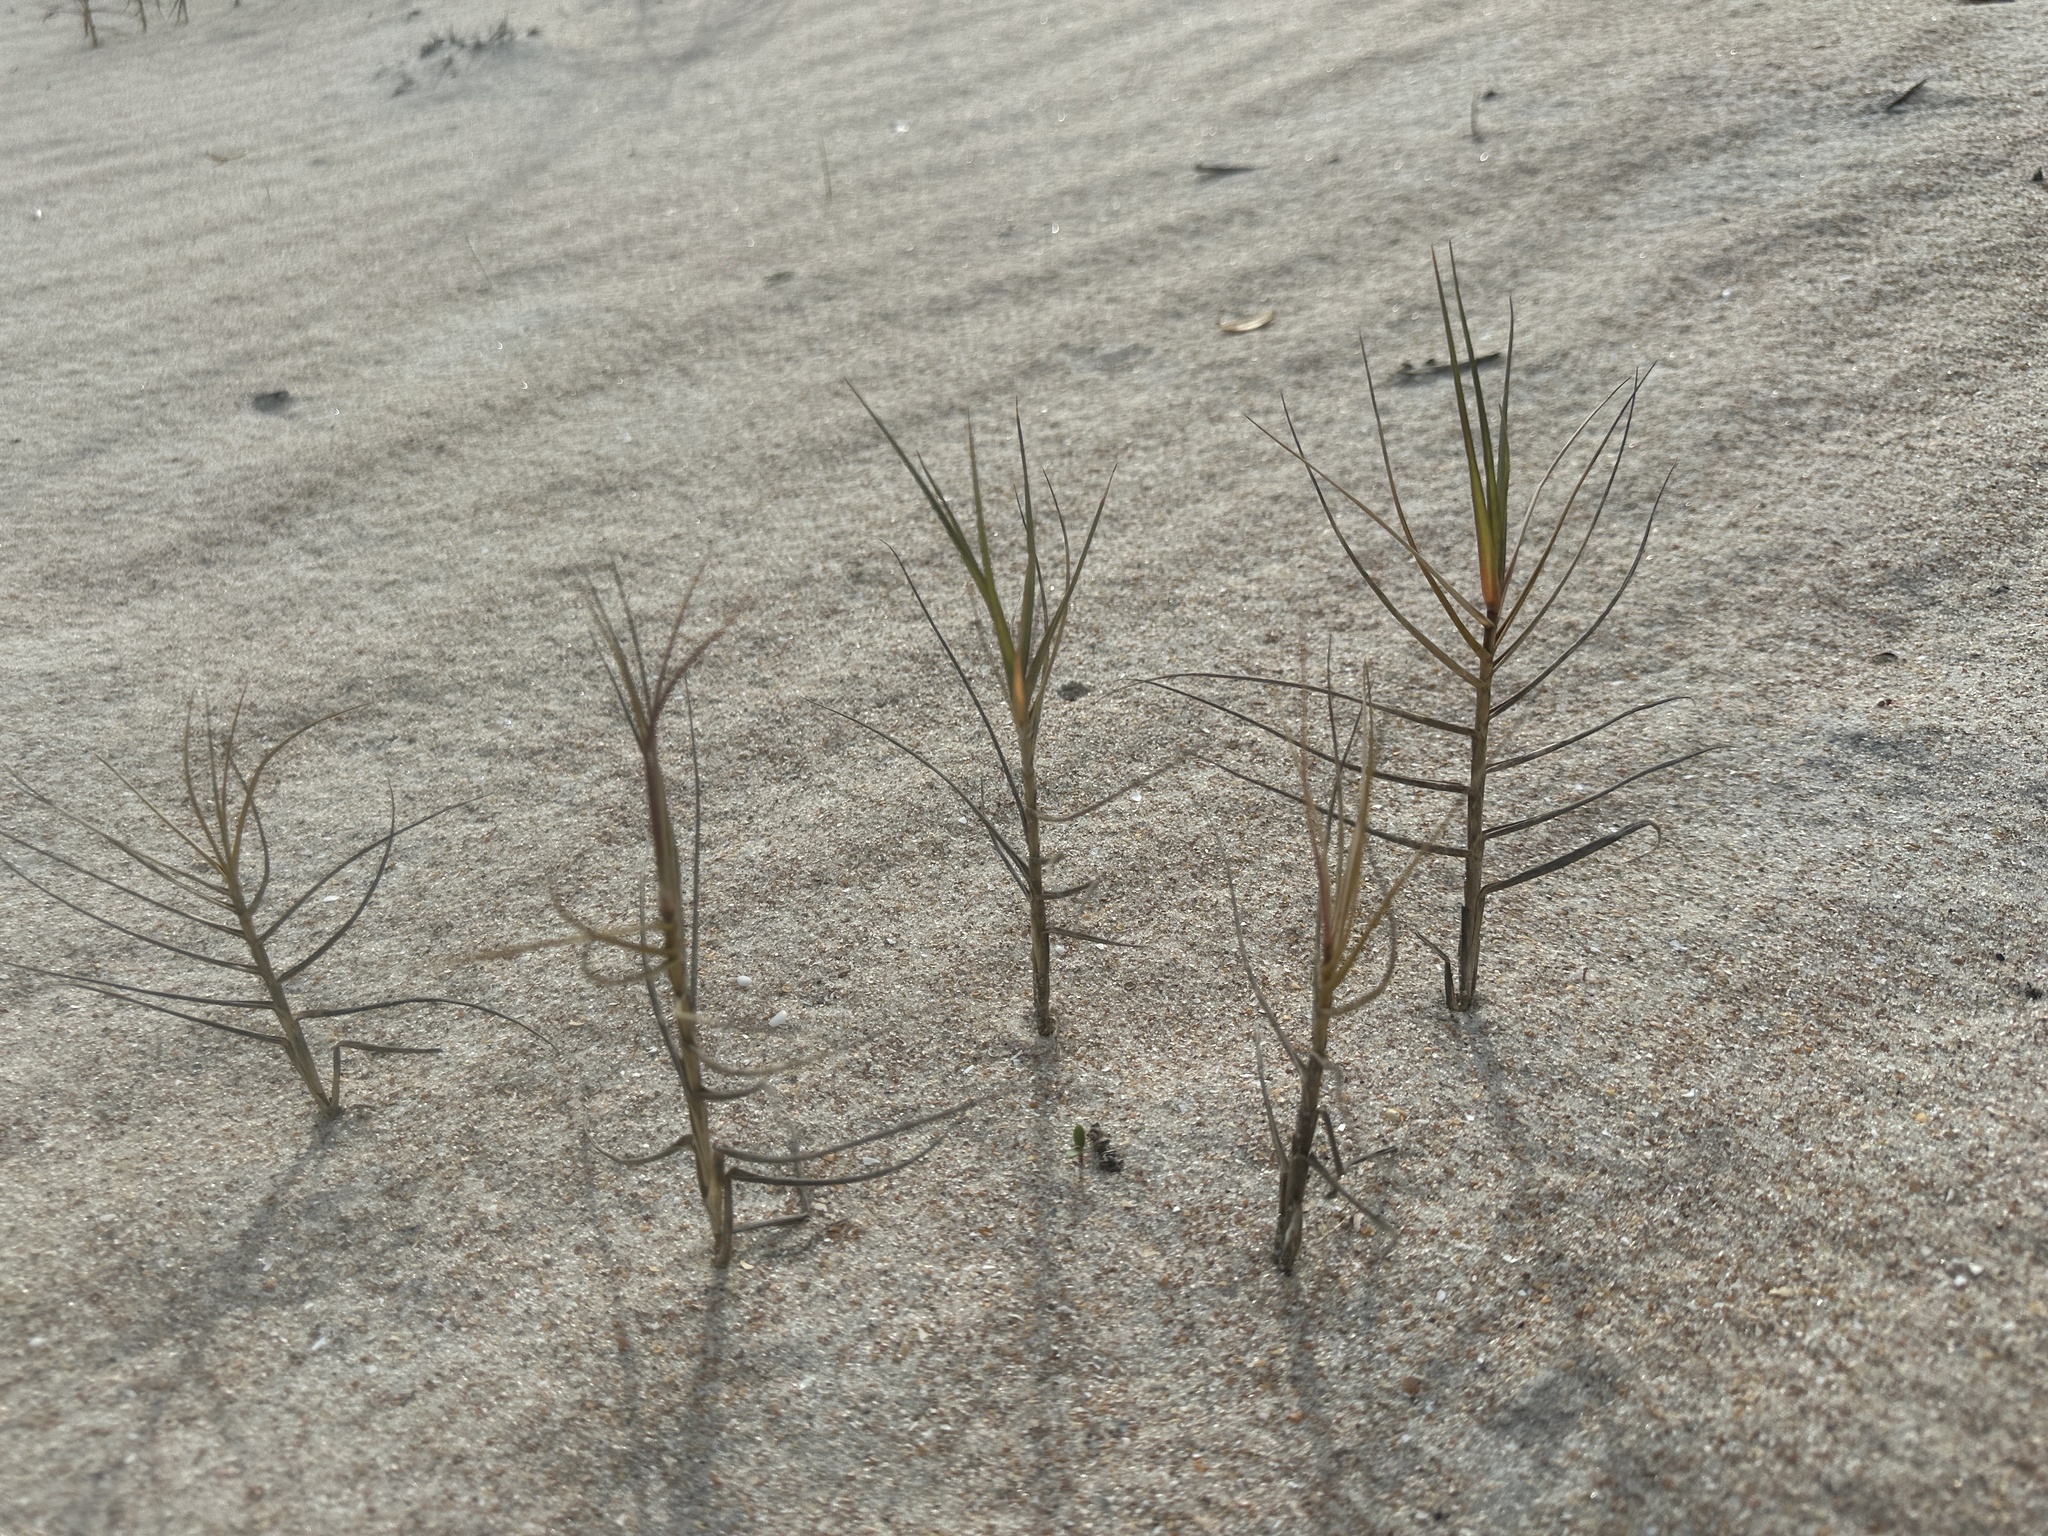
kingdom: Plantae
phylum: Tracheophyta
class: Liliopsida
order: Poales
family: Poaceae
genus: Distichlis
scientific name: Distichlis spicata
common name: Saltgrass
